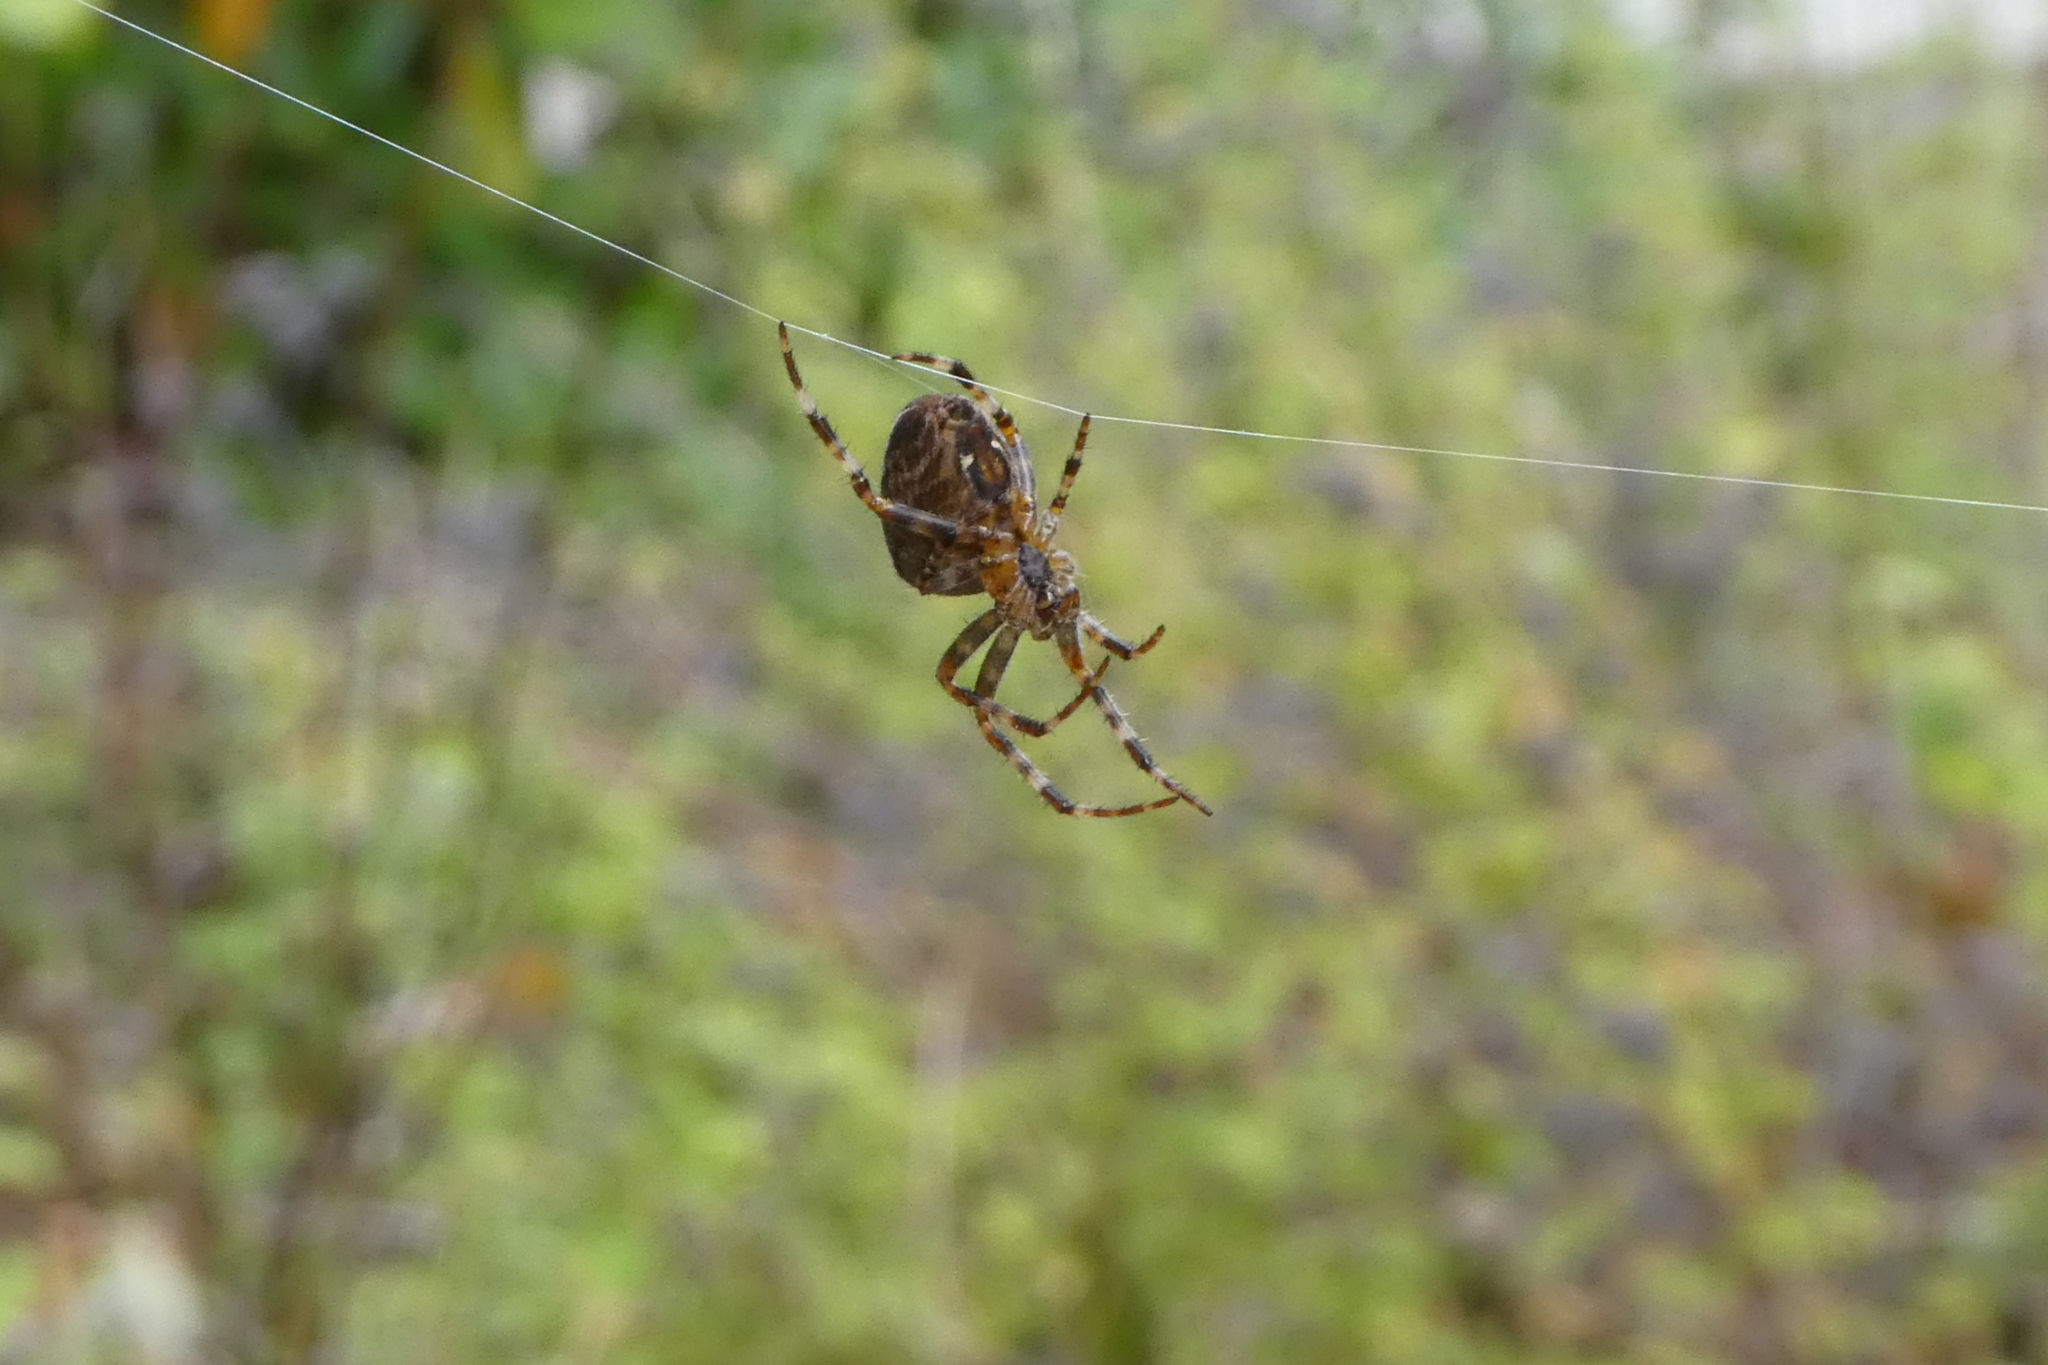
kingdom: Animalia
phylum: Arthropoda
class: Arachnida
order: Araneae
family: Araneidae
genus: Araneus
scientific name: Araneus diadematus
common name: Cross orbweaver
